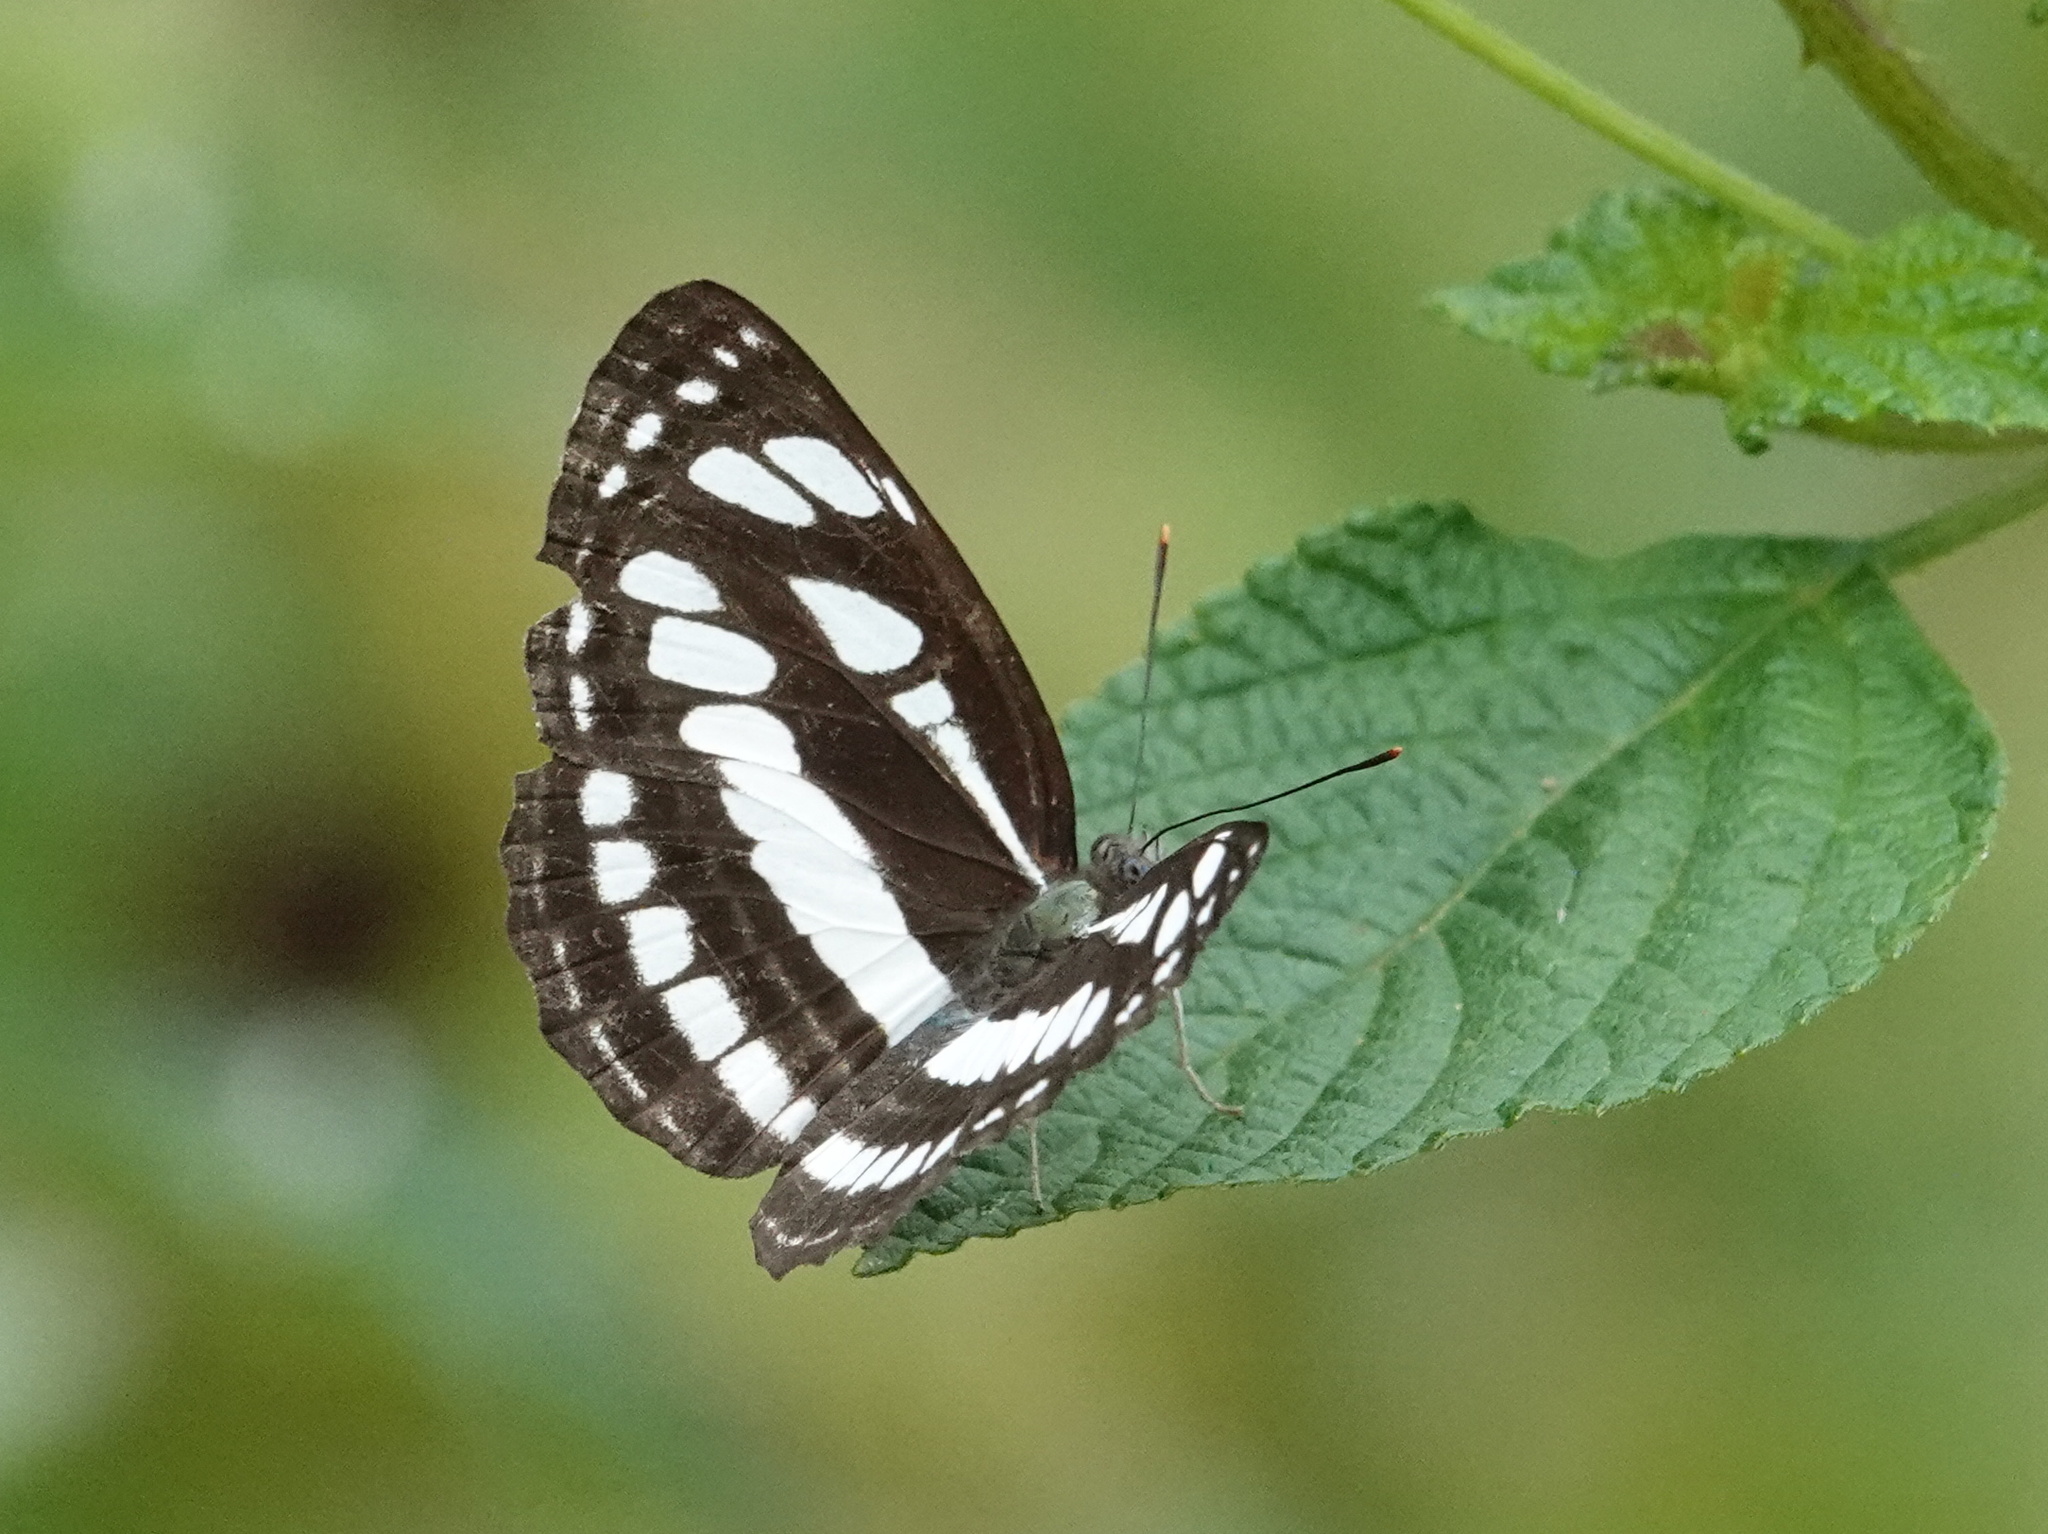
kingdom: Animalia
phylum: Arthropoda
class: Insecta
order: Lepidoptera
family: Nymphalidae
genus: Neptis
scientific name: Neptis hylas
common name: Common sailer
